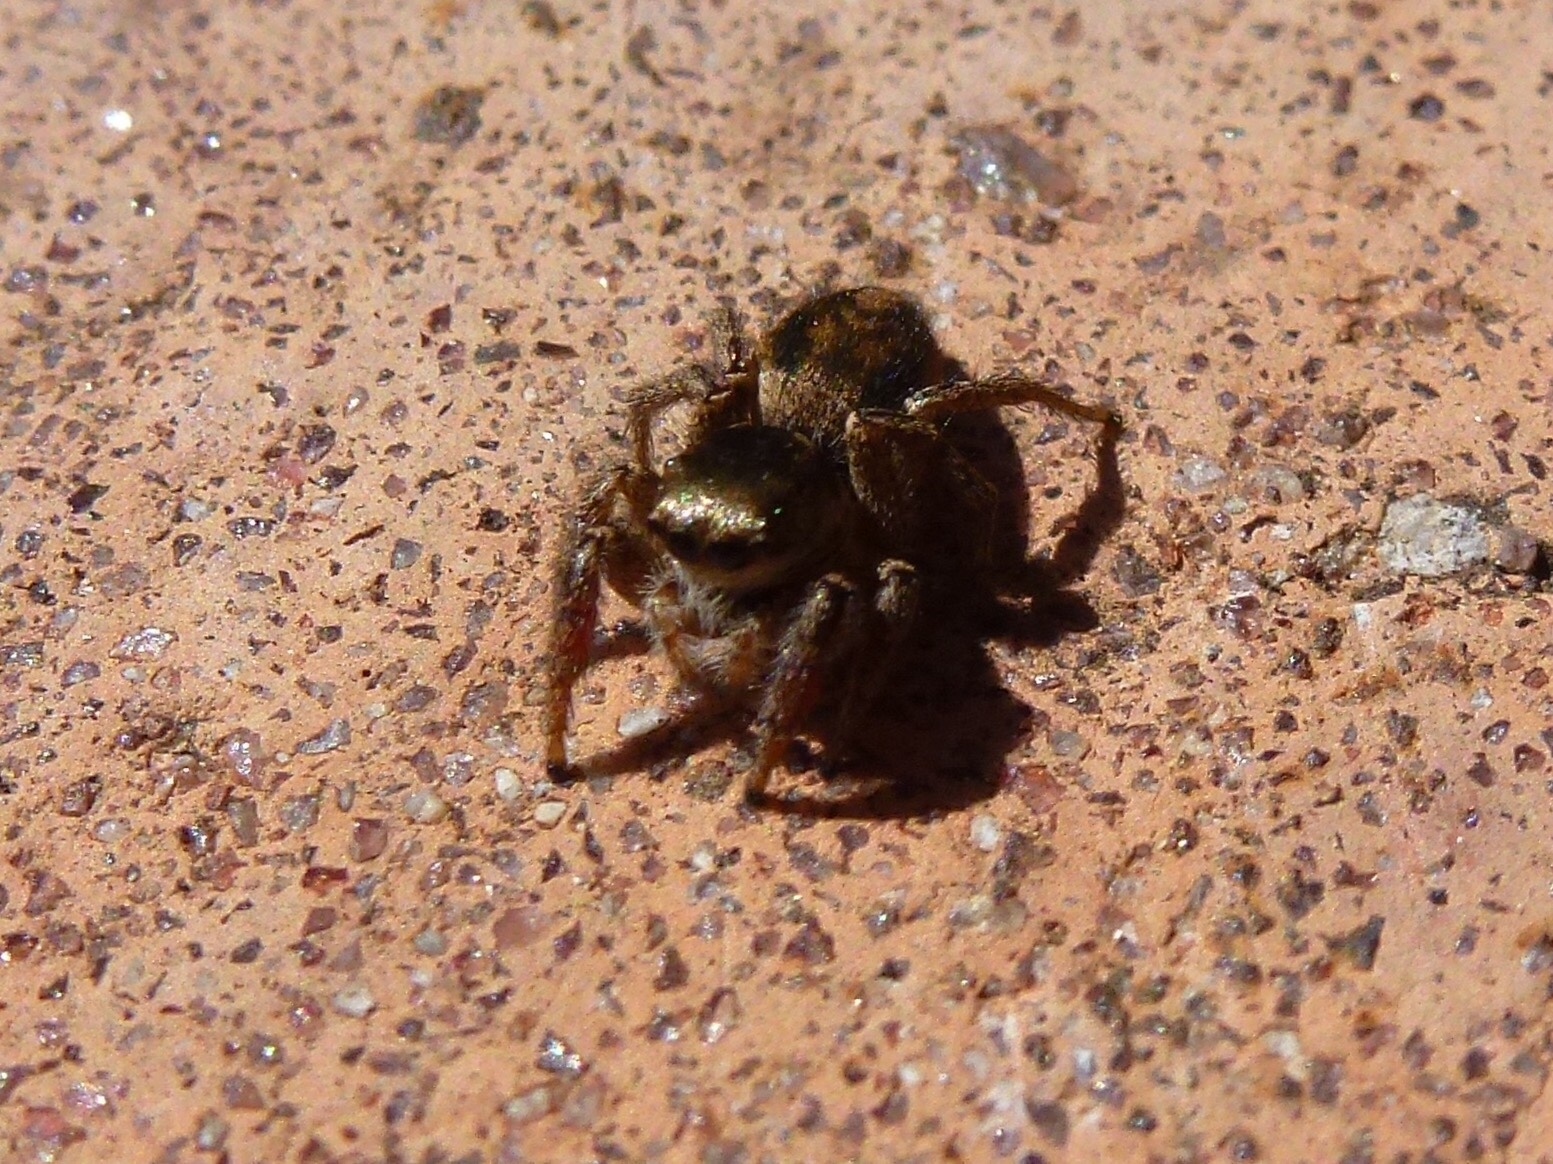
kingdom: Animalia
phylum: Arthropoda
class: Arachnida
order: Araneae
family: Salticidae
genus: Habronattus
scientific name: Habronattus pyrrithrix
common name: Jumping spider
